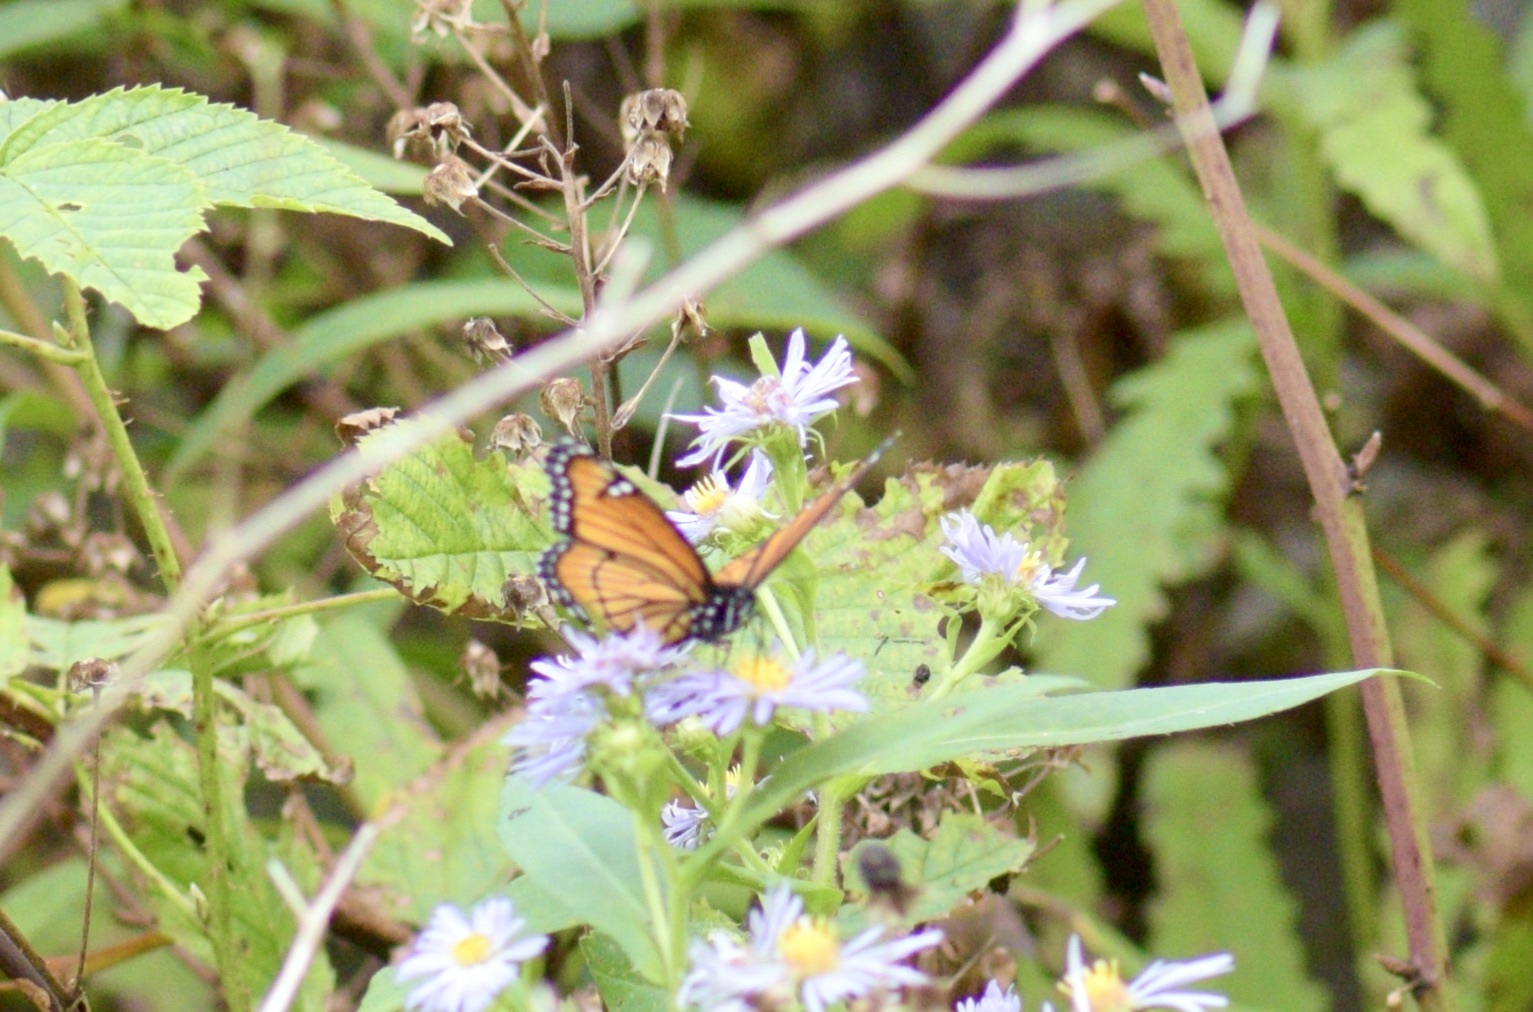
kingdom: Animalia
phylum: Arthropoda
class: Insecta
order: Lepidoptera
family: Nymphalidae
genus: Limenitis
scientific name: Limenitis archippus
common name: Viceroy
